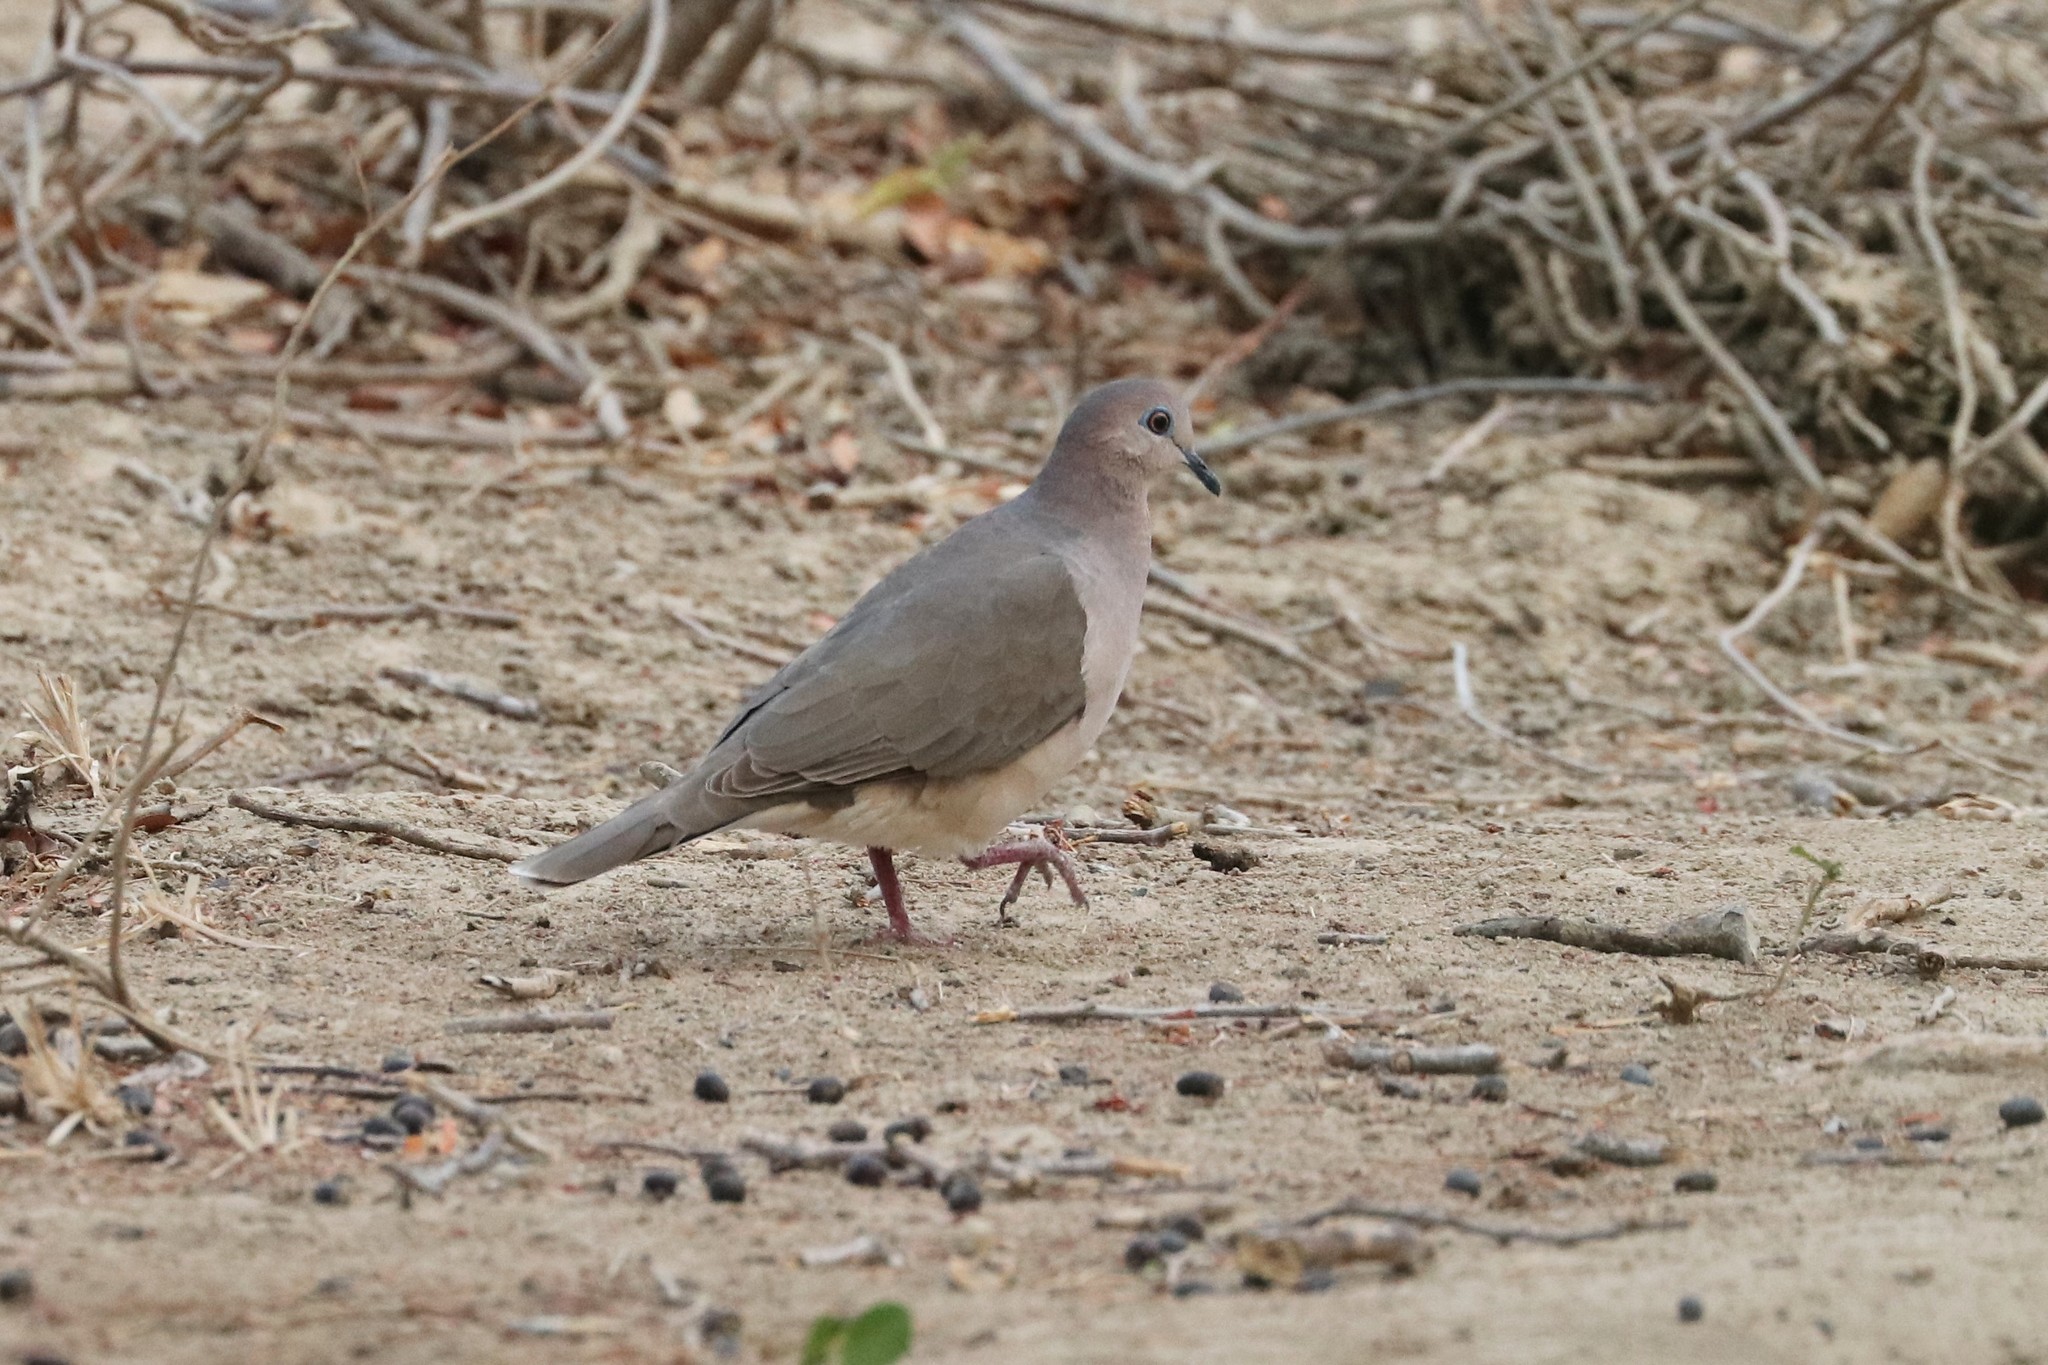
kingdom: Animalia
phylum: Chordata
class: Aves
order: Columbiformes
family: Columbidae
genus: Leptotila
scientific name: Leptotila verreauxi
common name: White-tipped dove
